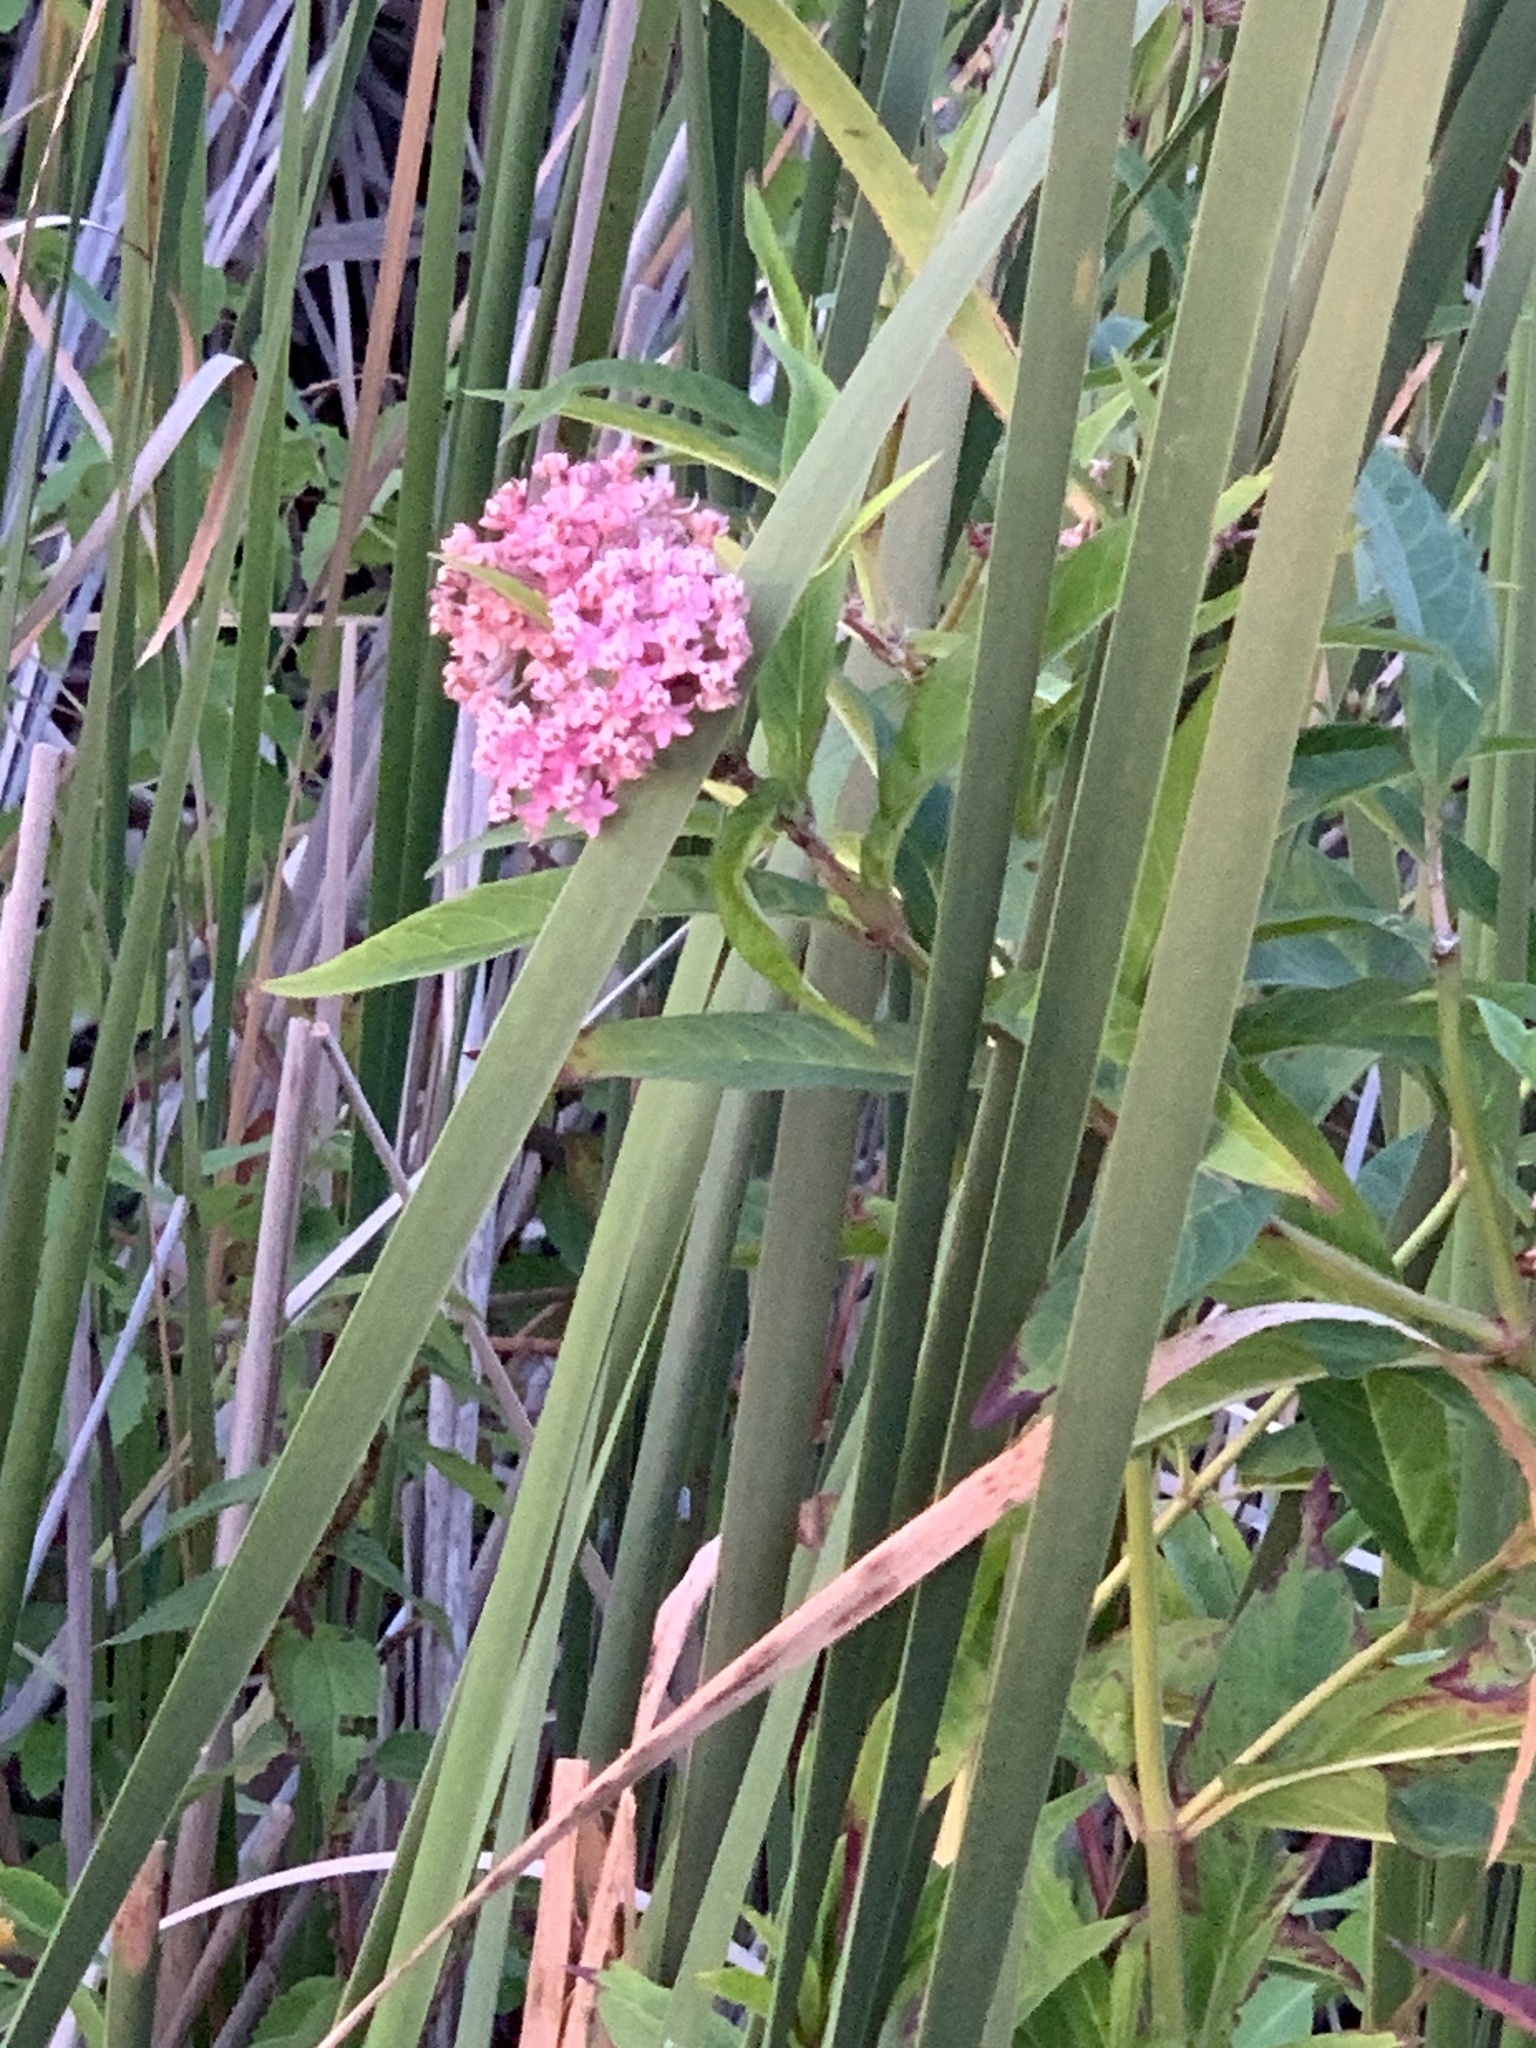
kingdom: Plantae
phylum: Tracheophyta
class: Magnoliopsida
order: Gentianales
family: Apocynaceae
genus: Asclepias
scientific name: Asclepias incarnata
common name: Swamp milkweed
